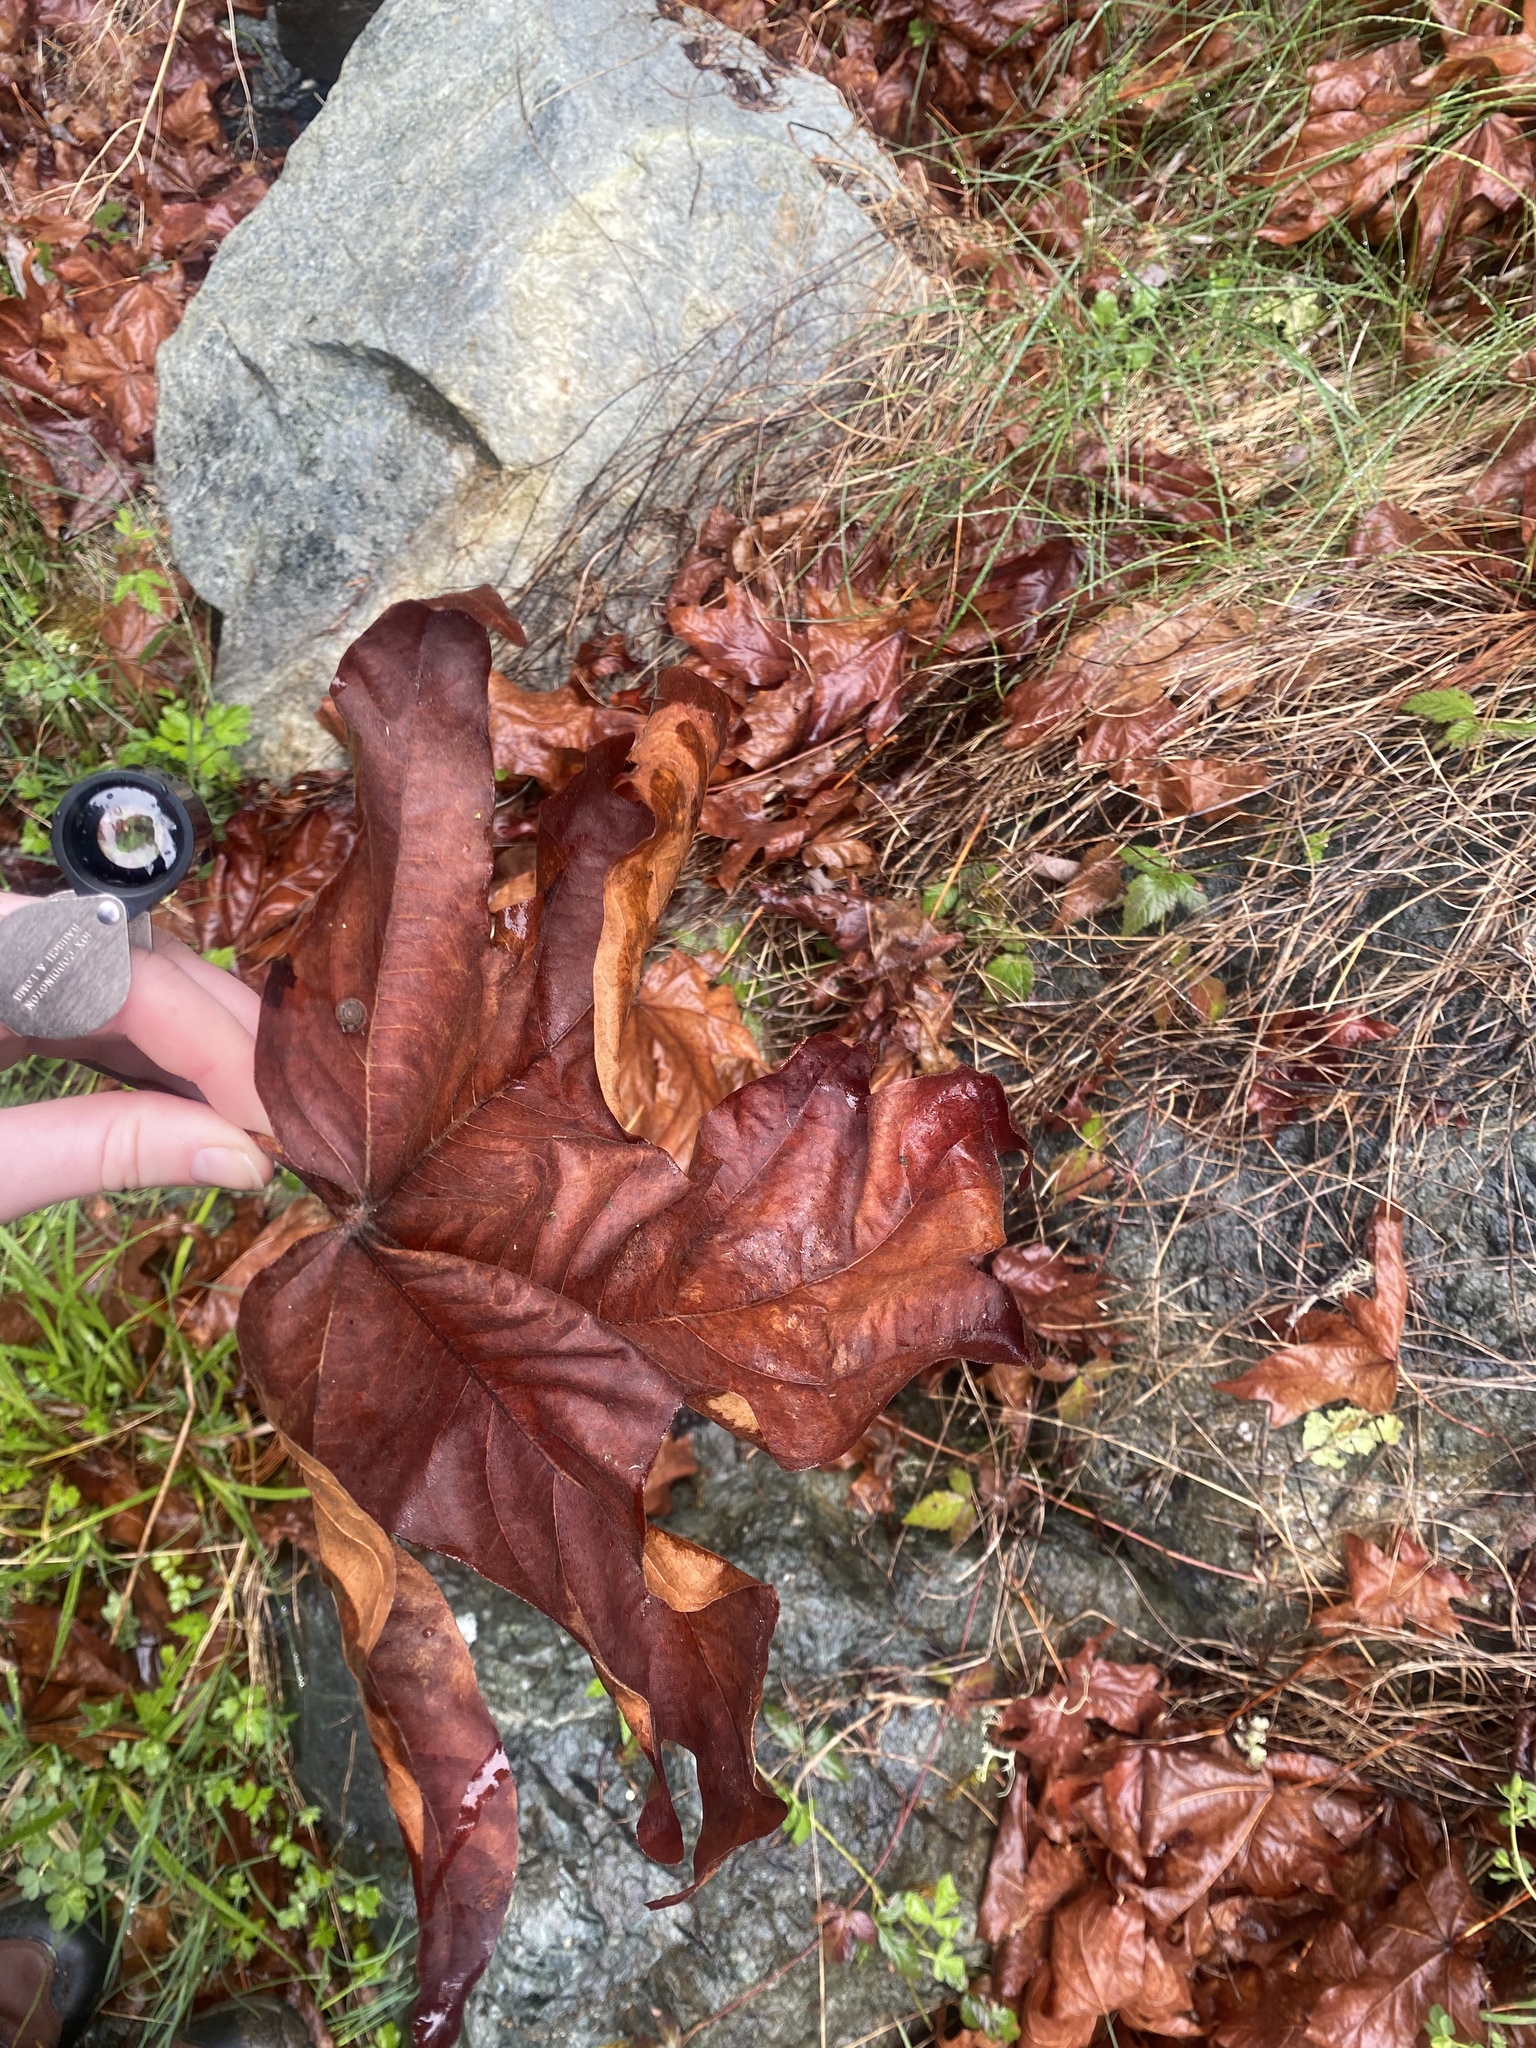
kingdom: Plantae
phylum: Tracheophyta
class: Magnoliopsida
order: Sapindales
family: Sapindaceae
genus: Acer
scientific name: Acer macrophyllum
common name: Oregon maple
